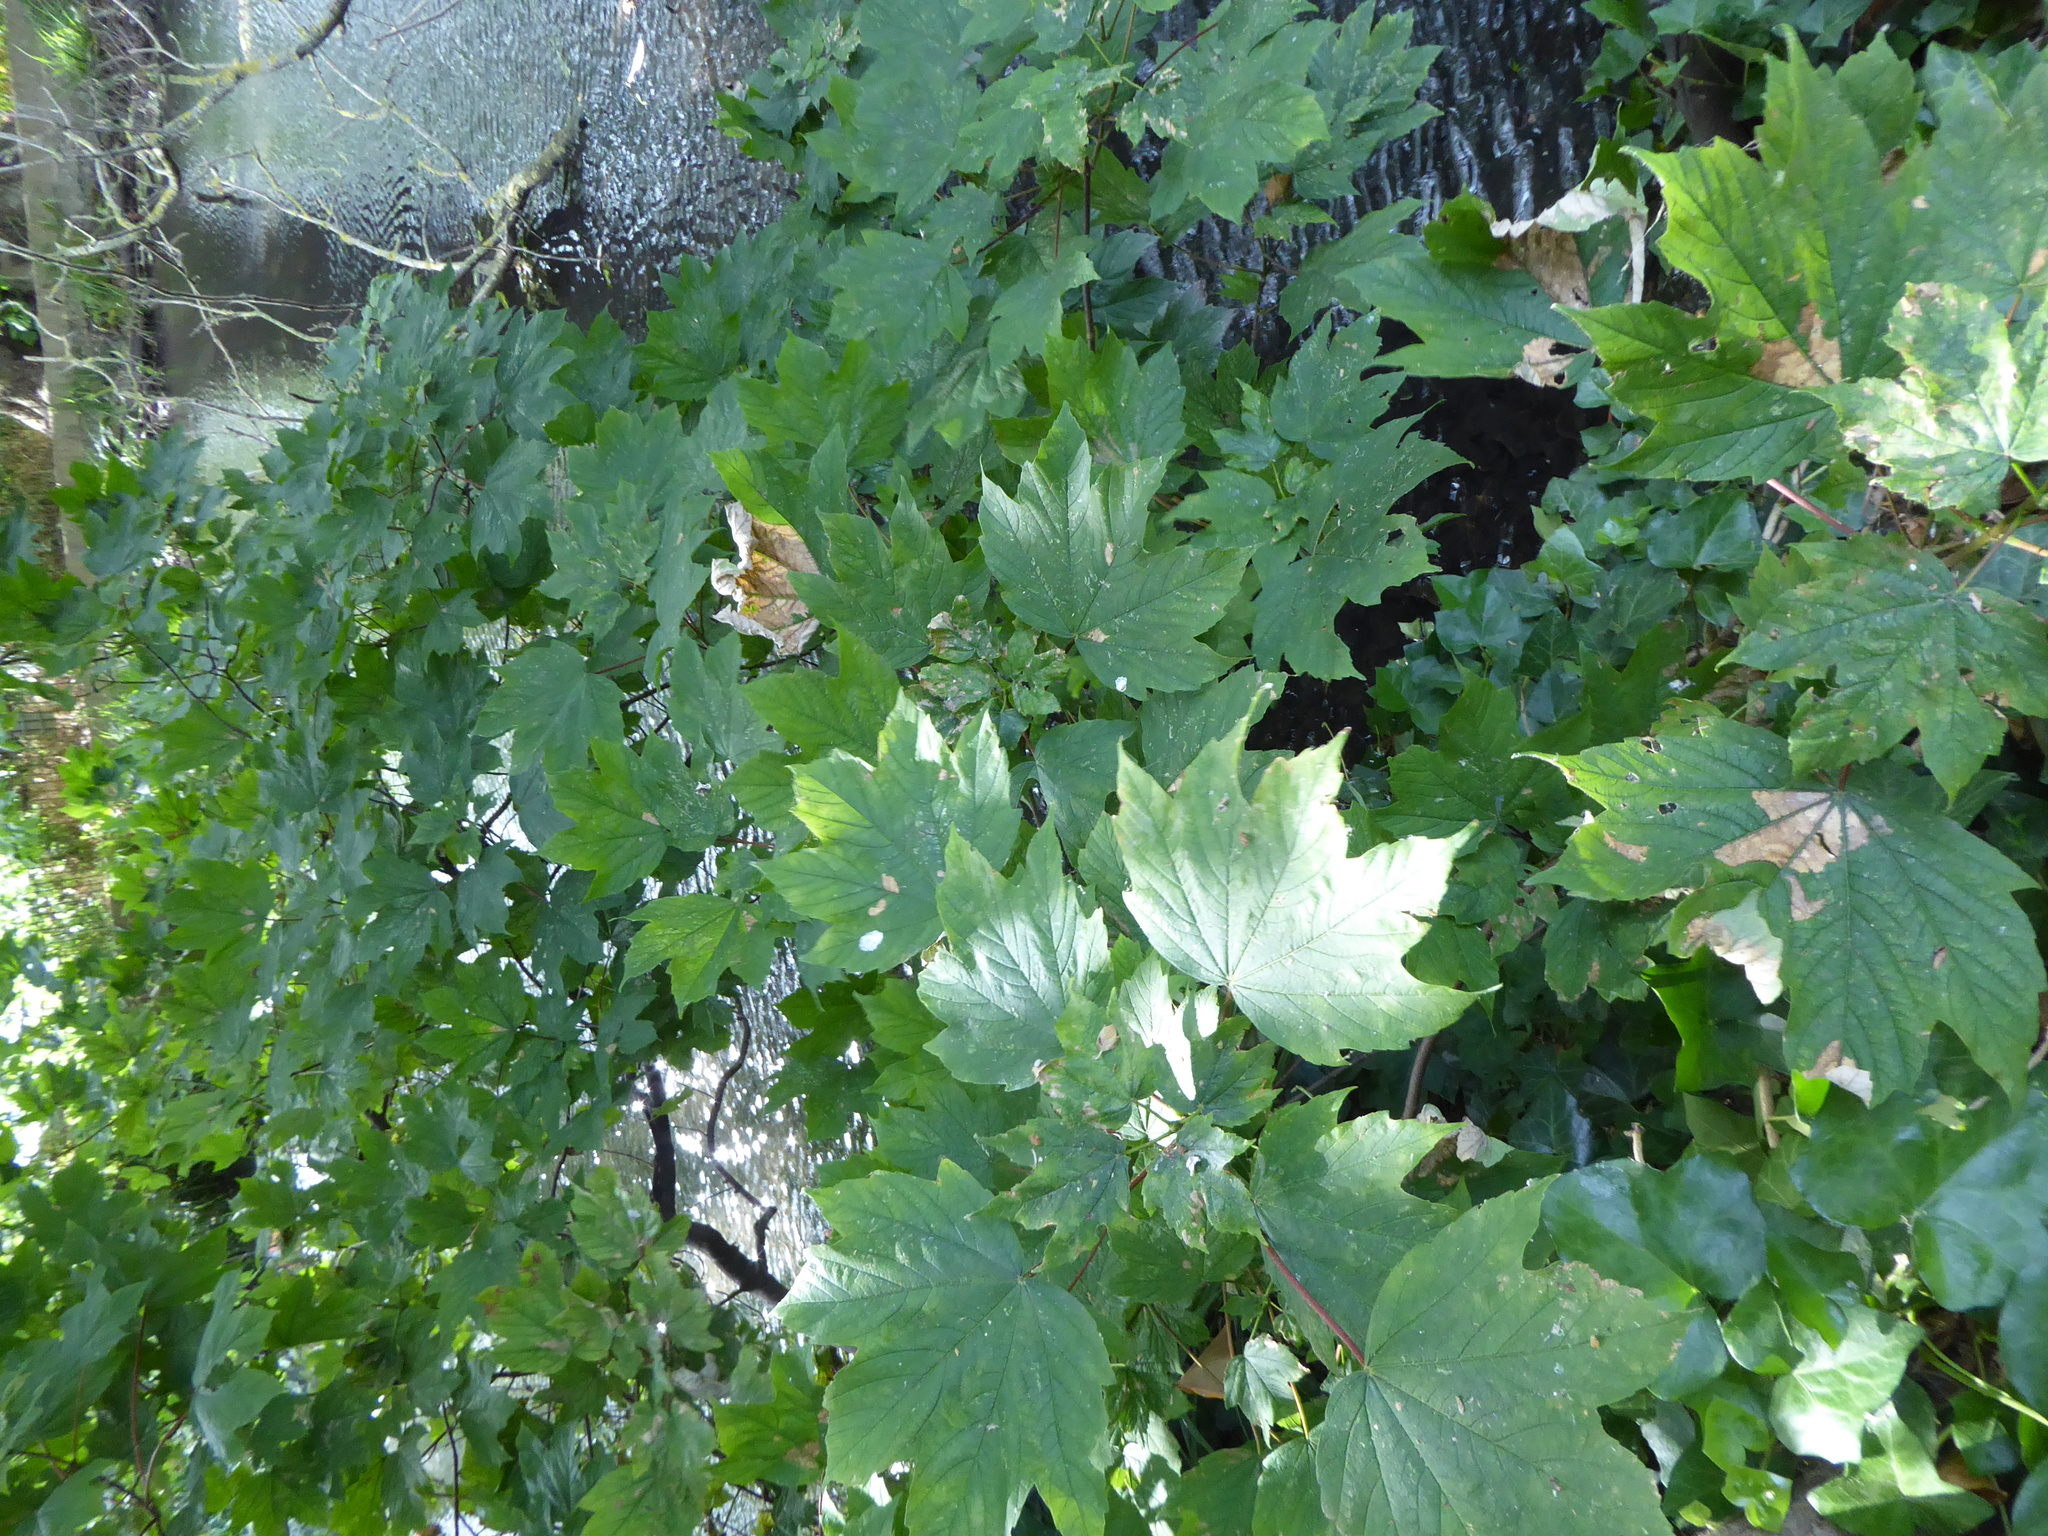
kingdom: Plantae
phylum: Tracheophyta
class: Magnoliopsida
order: Sapindales
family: Sapindaceae
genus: Acer
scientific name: Acer pseudoplatanus
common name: Sycamore
